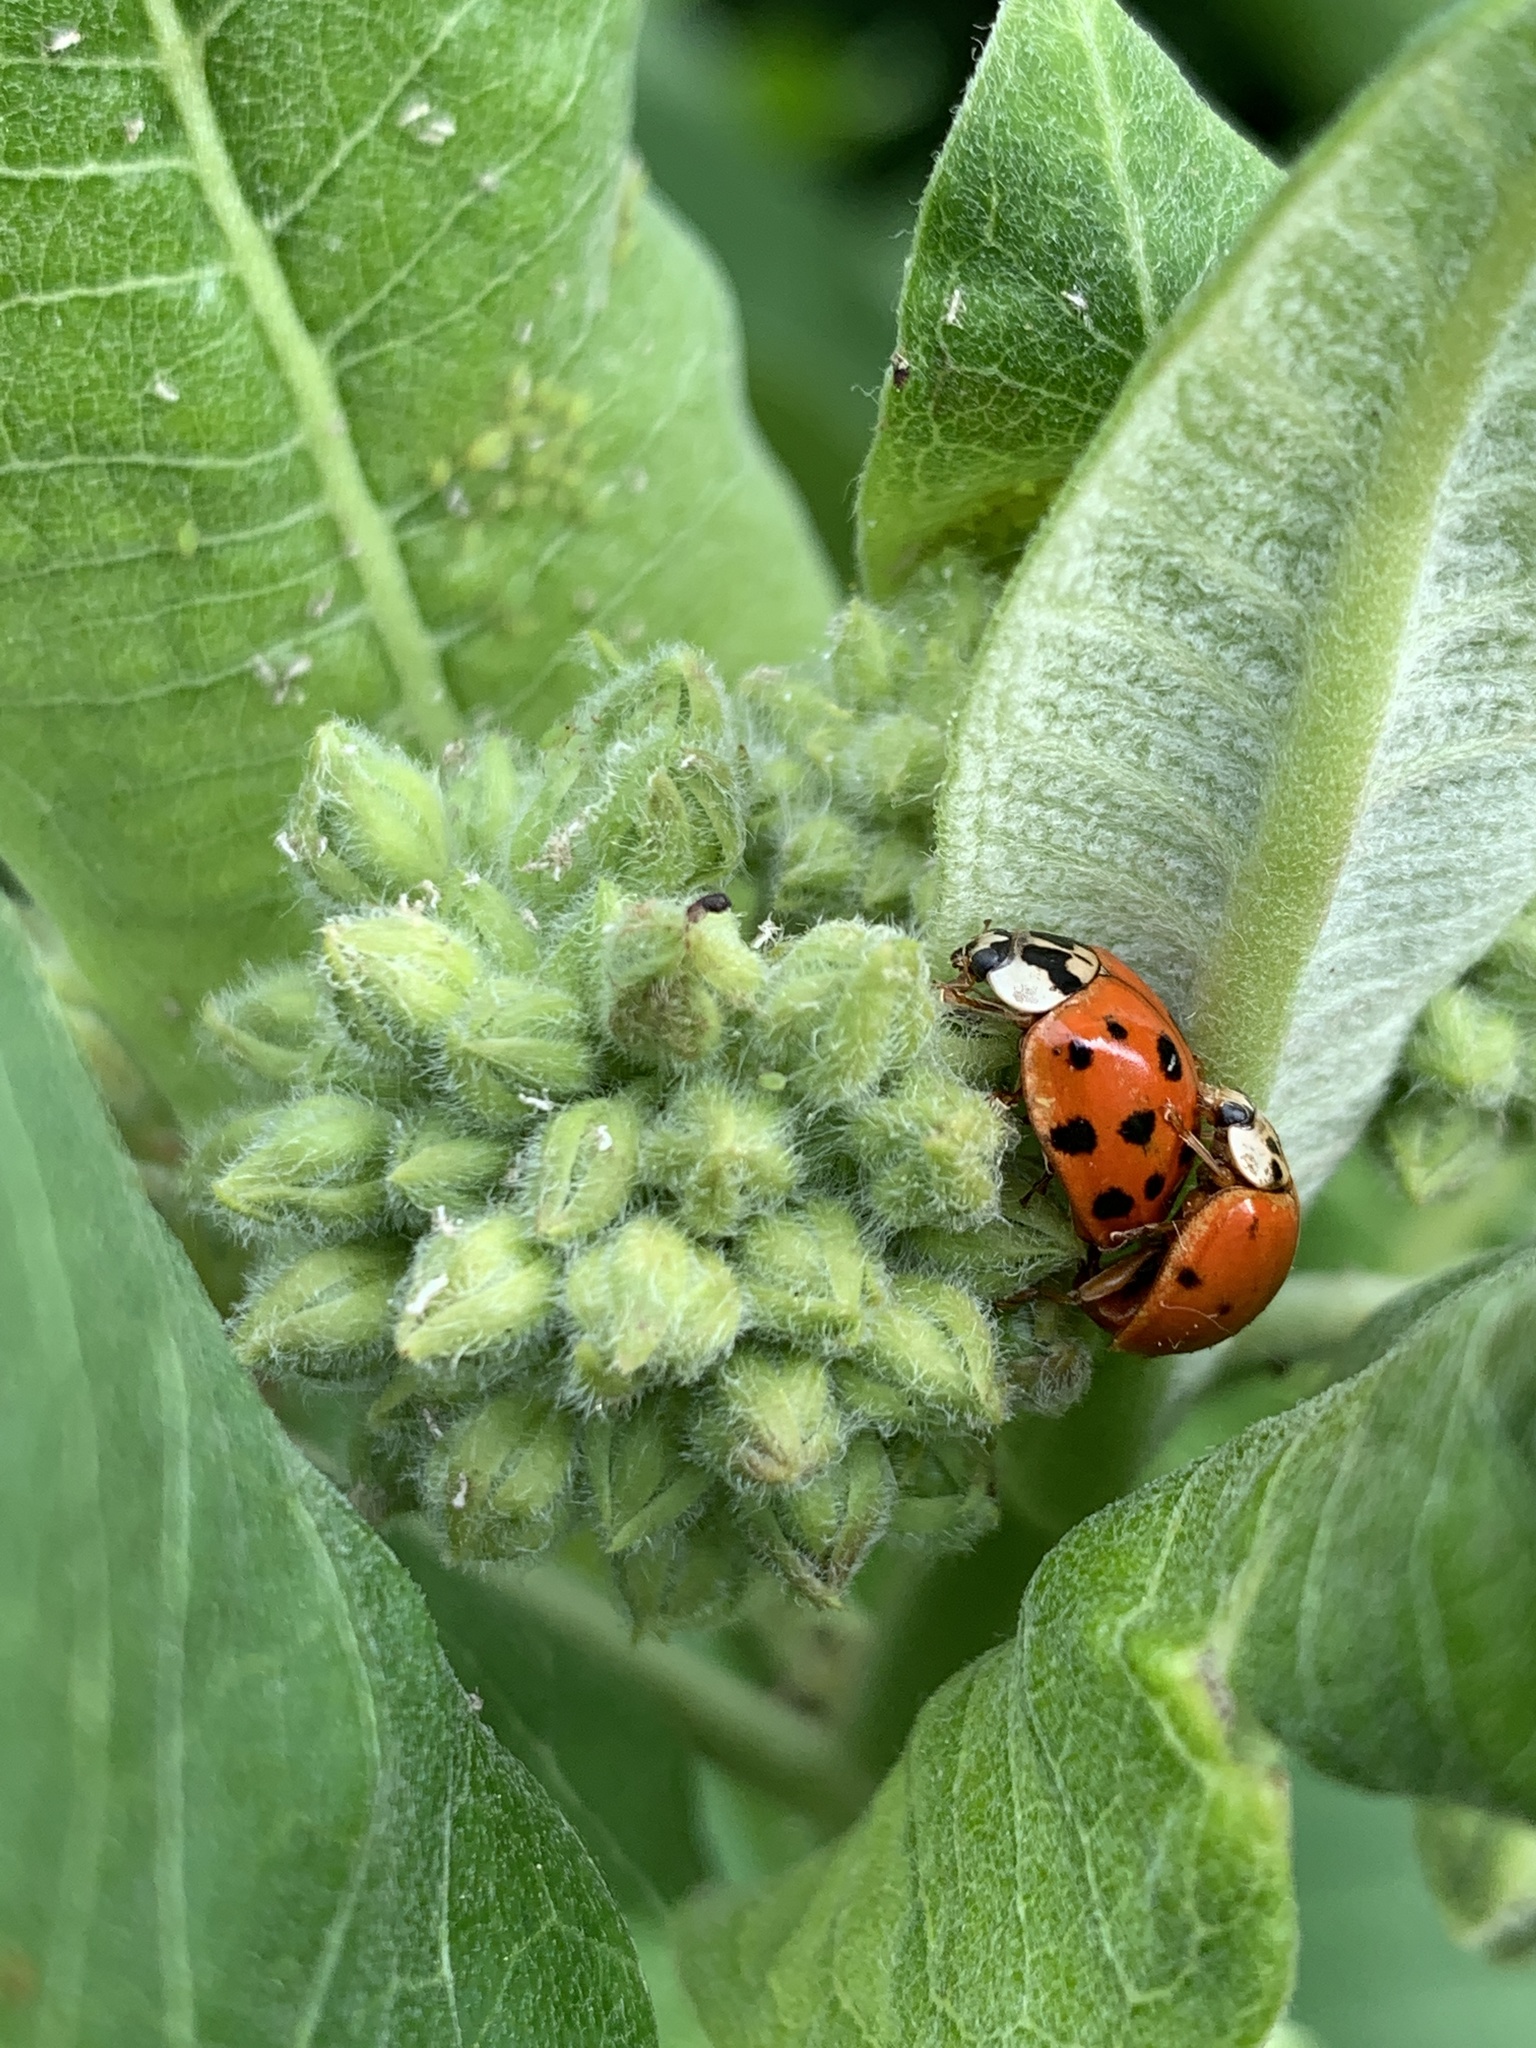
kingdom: Animalia
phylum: Arthropoda
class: Insecta
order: Coleoptera
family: Coccinellidae
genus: Harmonia
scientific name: Harmonia axyridis
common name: Harlequin ladybird
